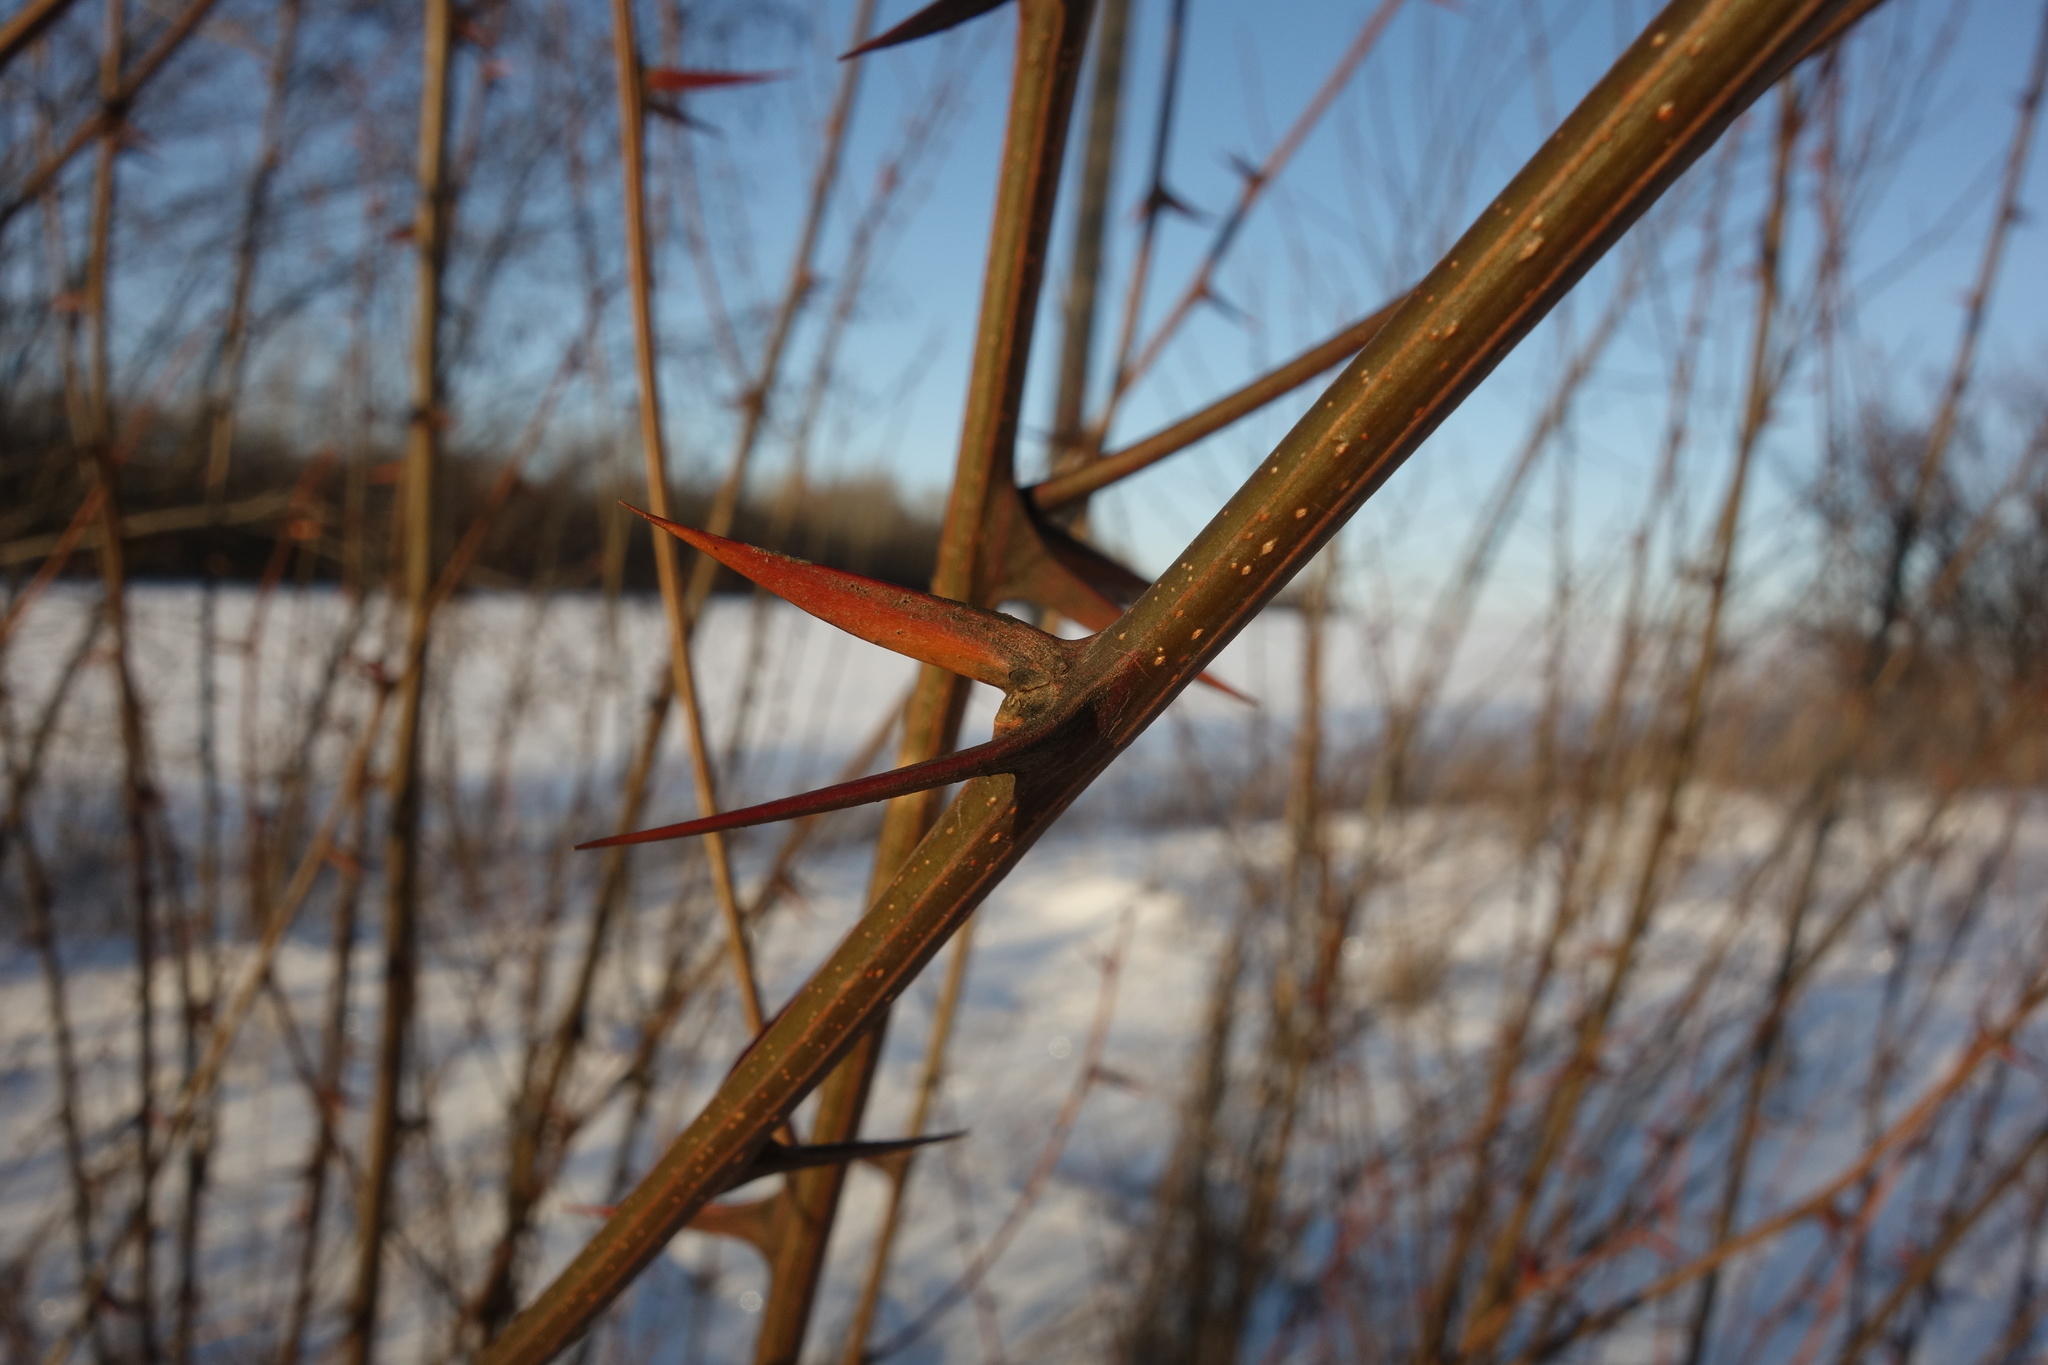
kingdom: Plantae
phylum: Tracheophyta
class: Magnoliopsida
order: Fabales
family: Fabaceae
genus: Robinia
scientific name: Robinia pseudoacacia
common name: Black locust
